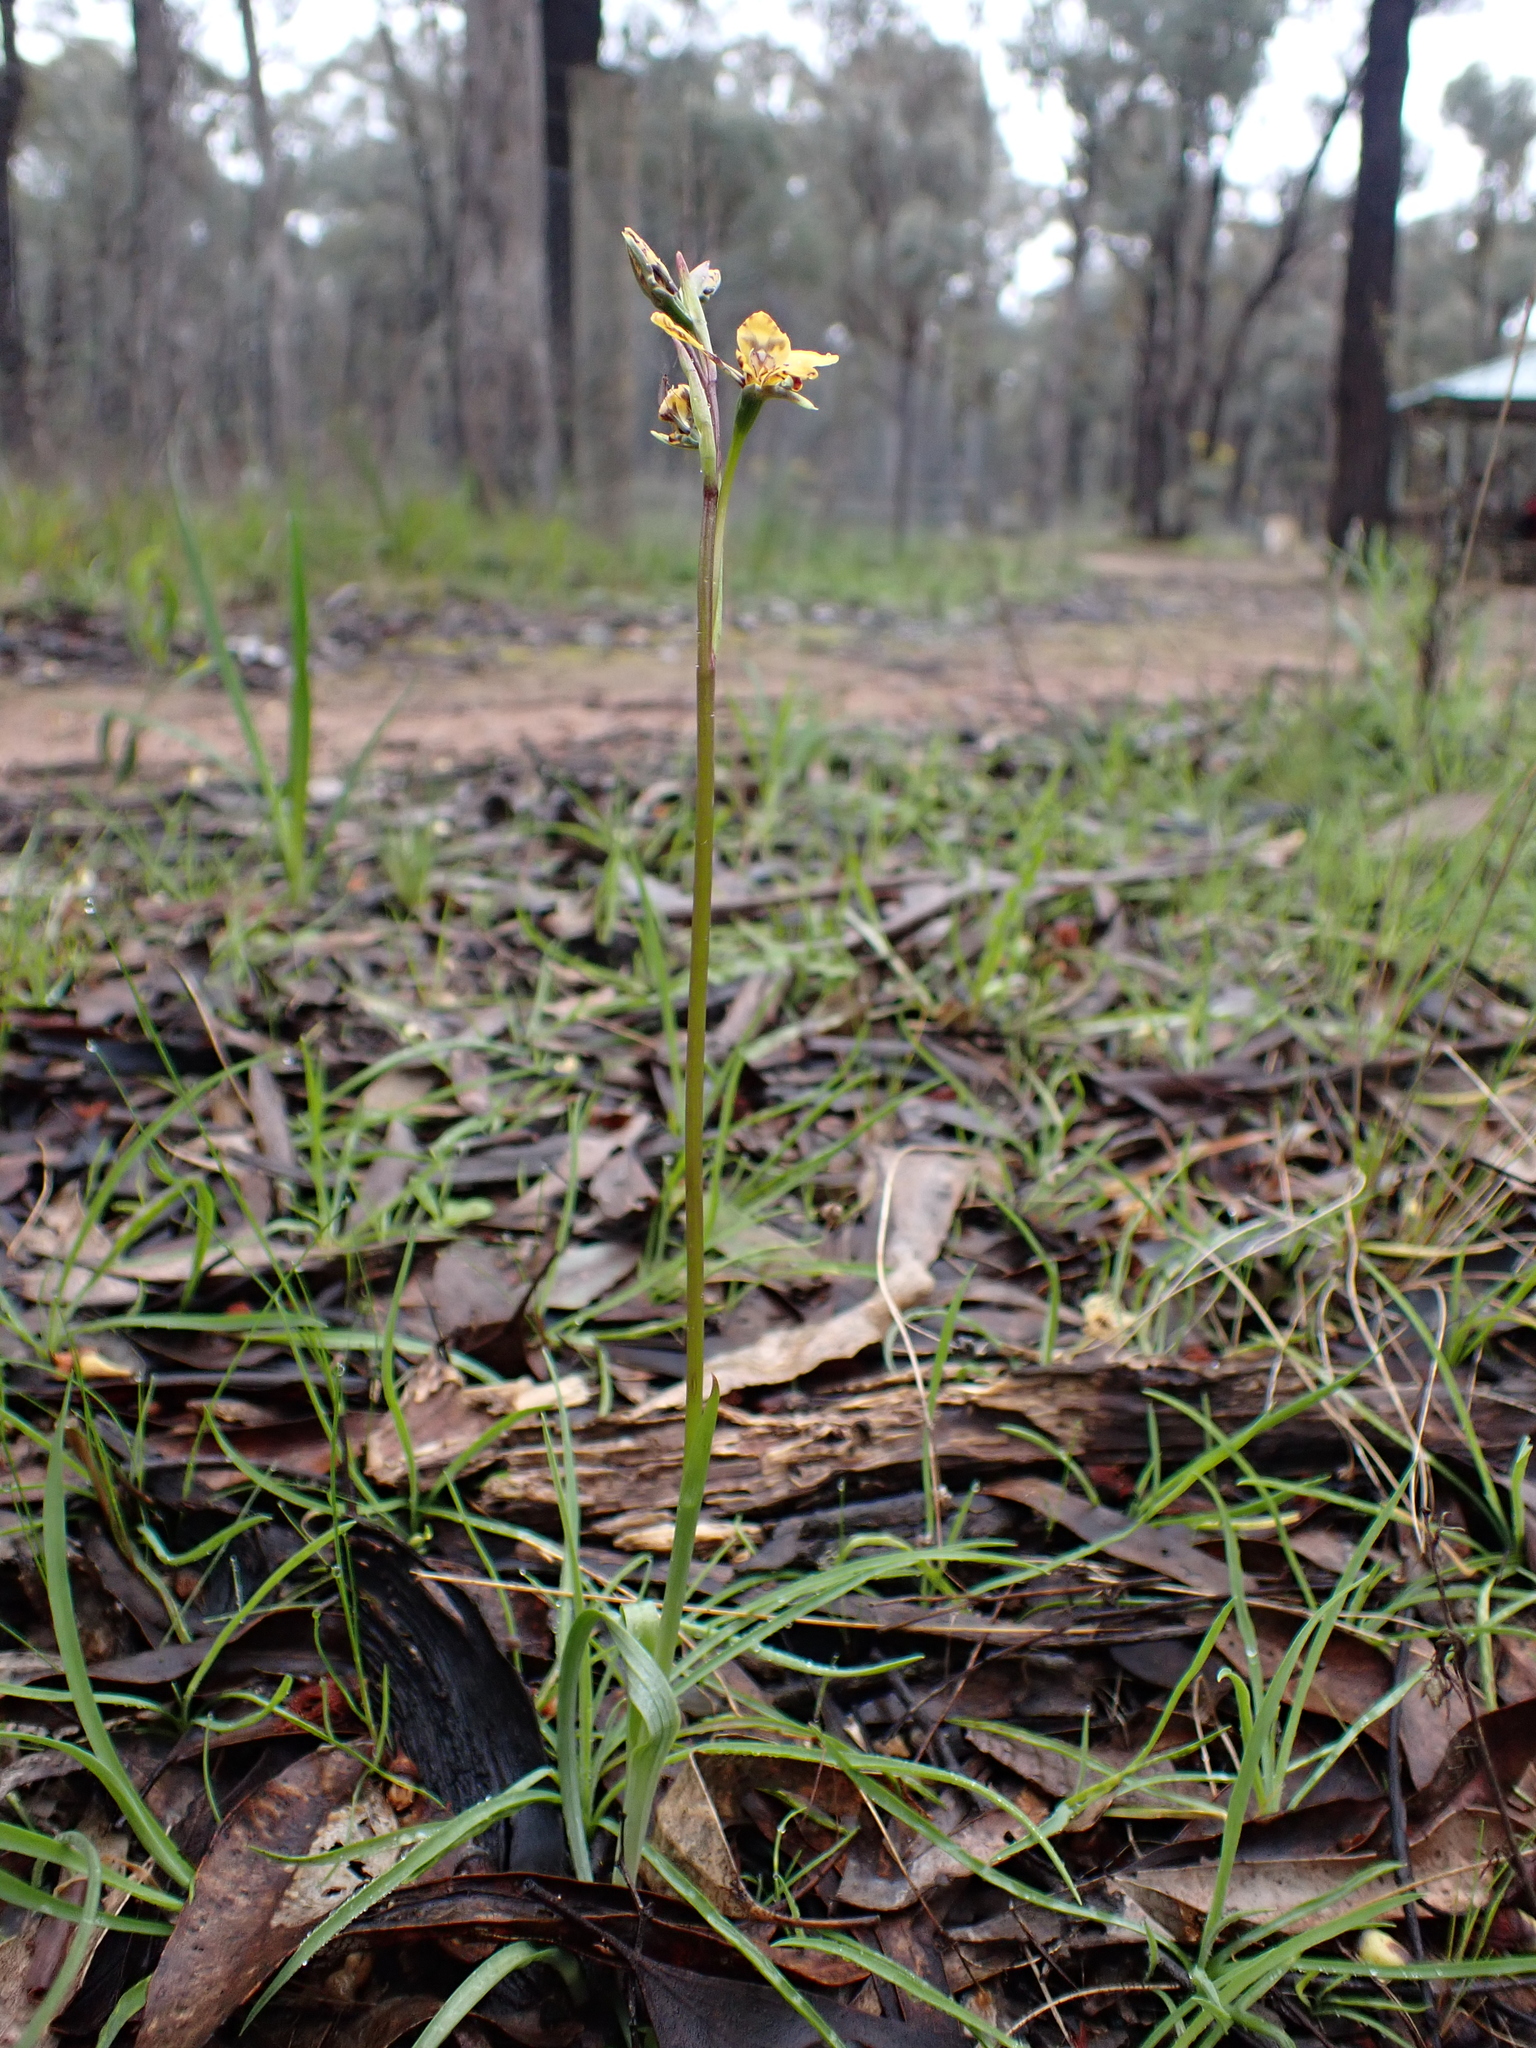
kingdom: Plantae
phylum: Tracheophyta
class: Liliopsida
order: Asparagales
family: Orchidaceae
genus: Diuris
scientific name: Diuris pardina
